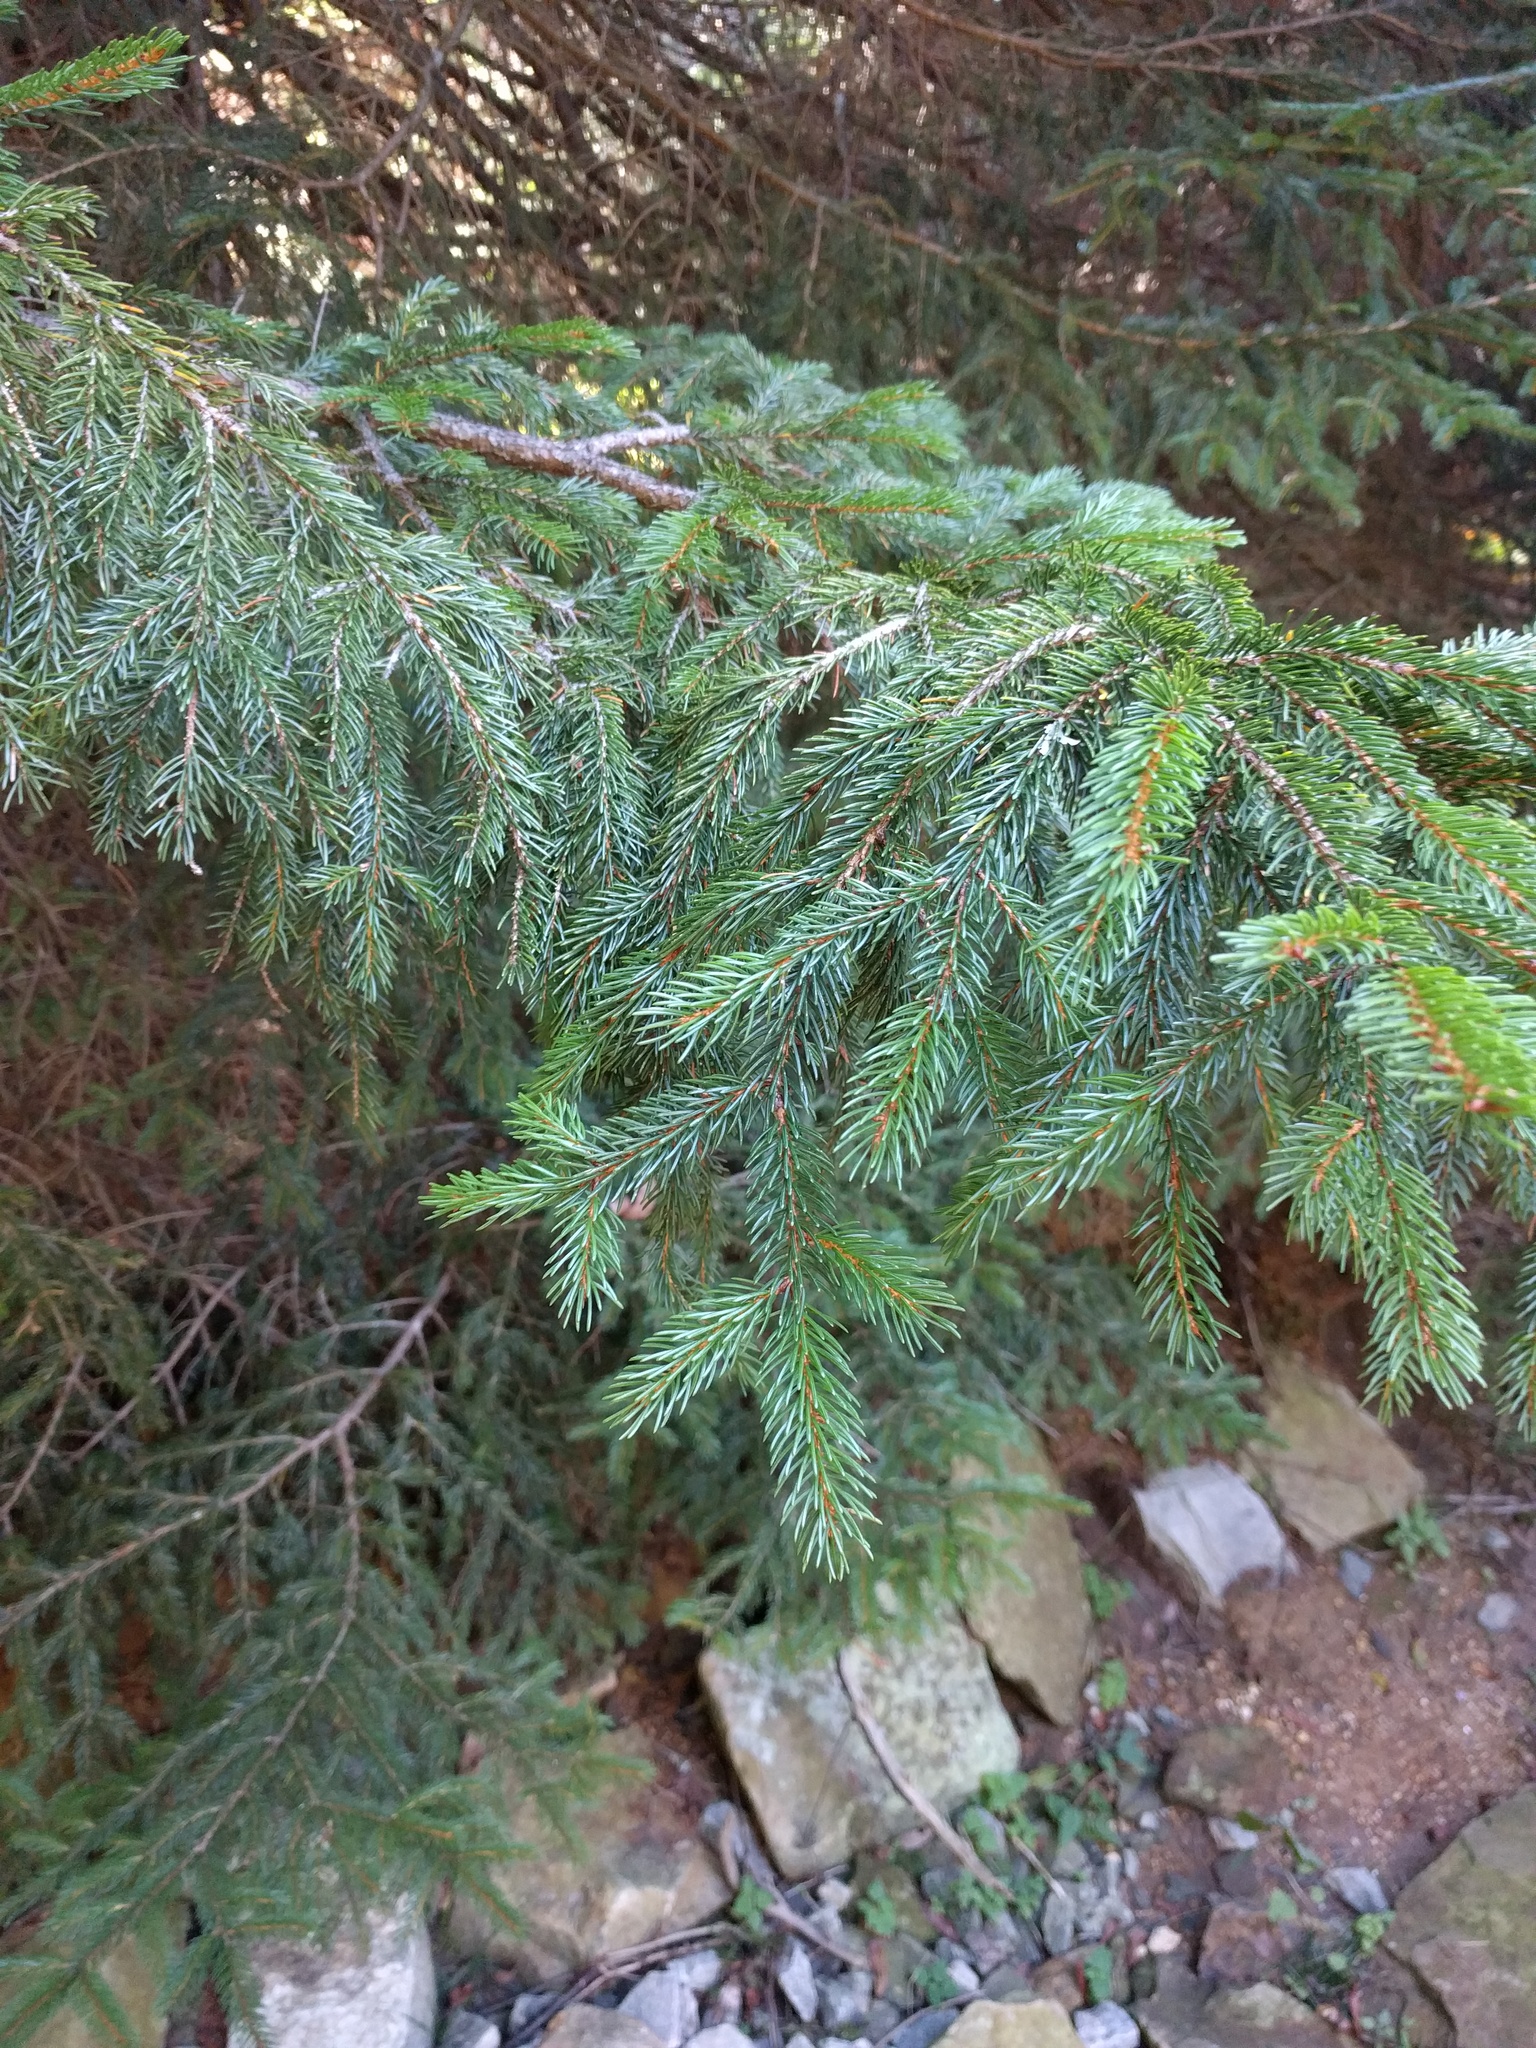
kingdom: Plantae
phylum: Tracheophyta
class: Pinopsida
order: Pinales
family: Pinaceae
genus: Picea
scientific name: Picea rubens
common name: Red spruce
